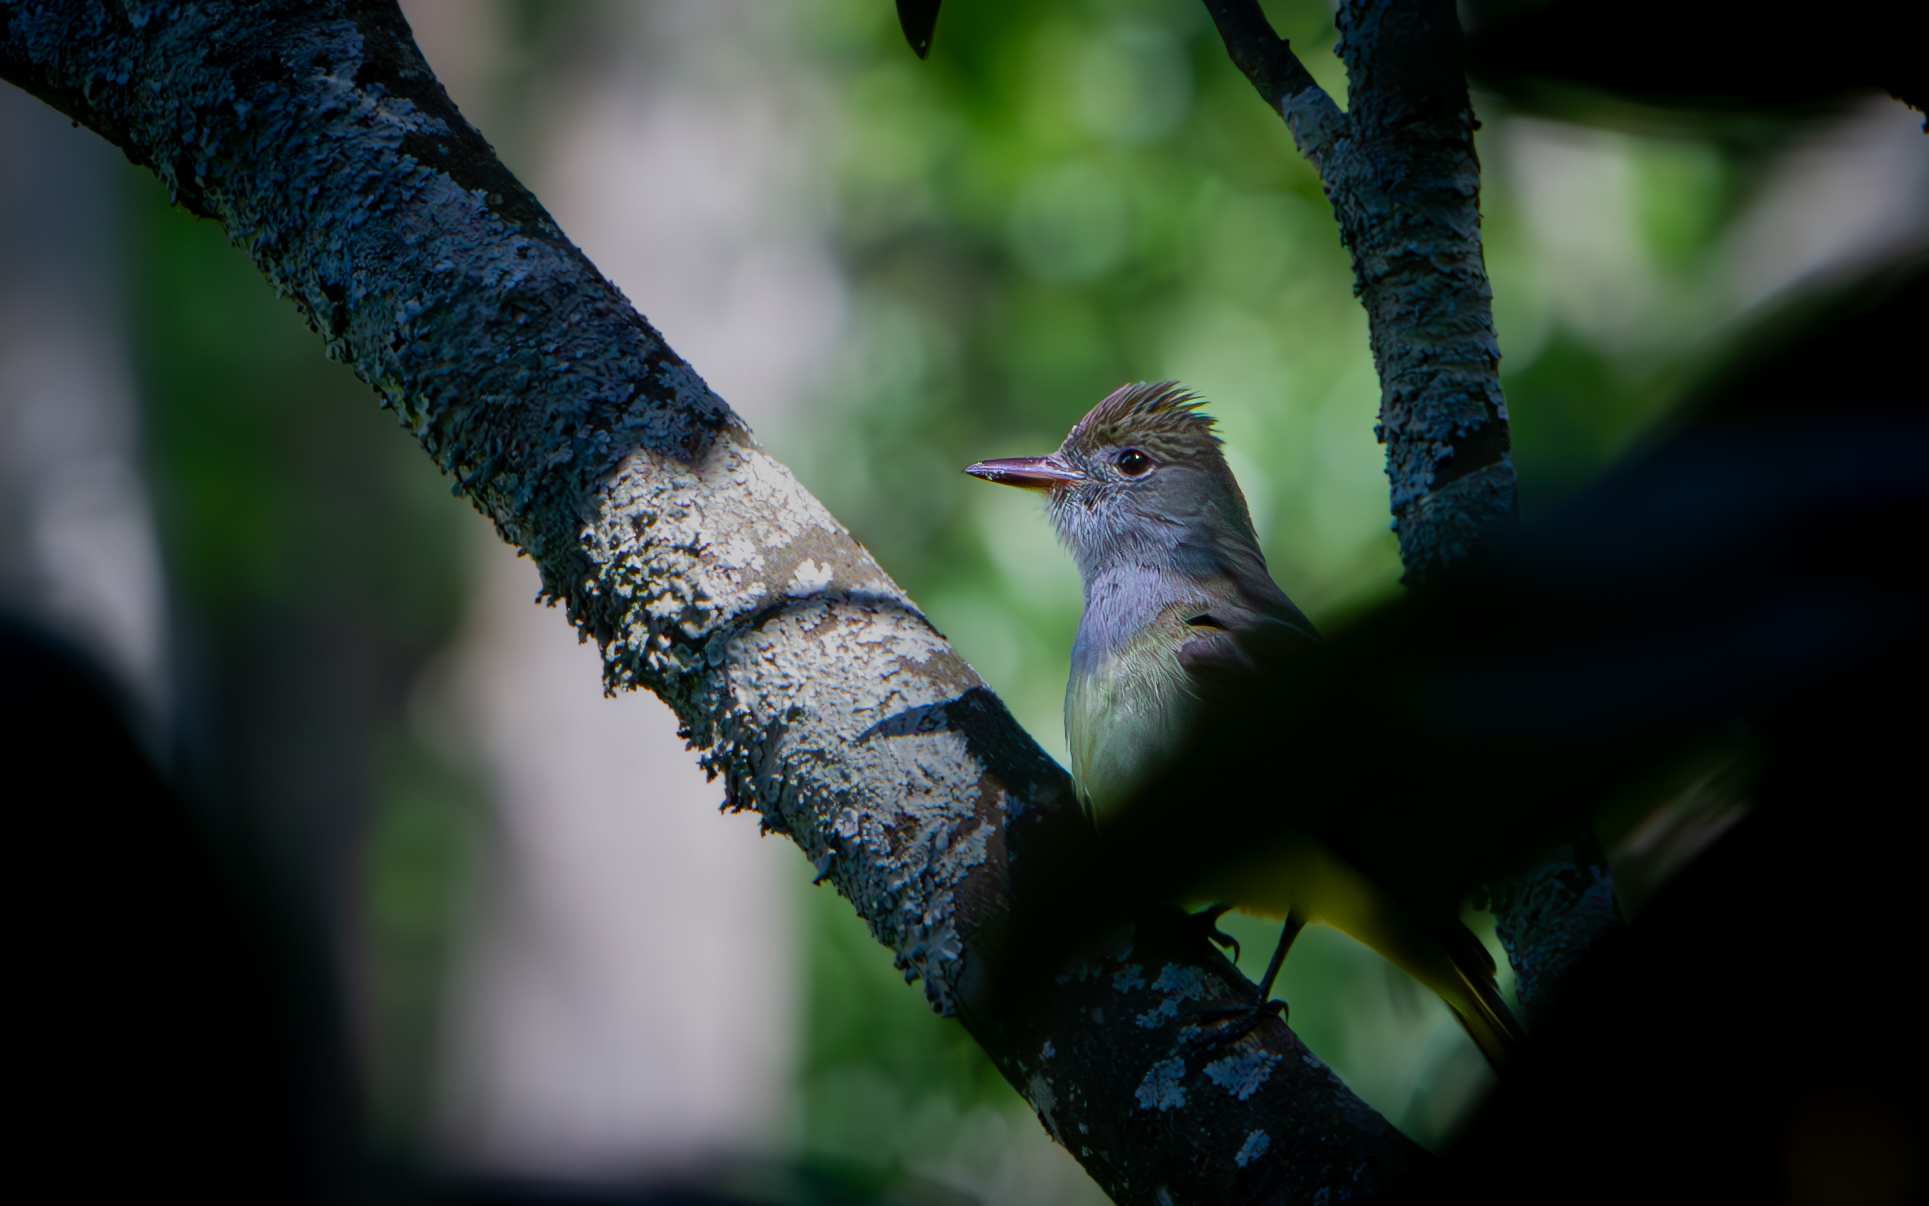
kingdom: Animalia
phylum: Chordata
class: Aves
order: Passeriformes
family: Tyrannidae
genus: Myiarchus
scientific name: Myiarchus crinitus
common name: Great crested flycatcher
